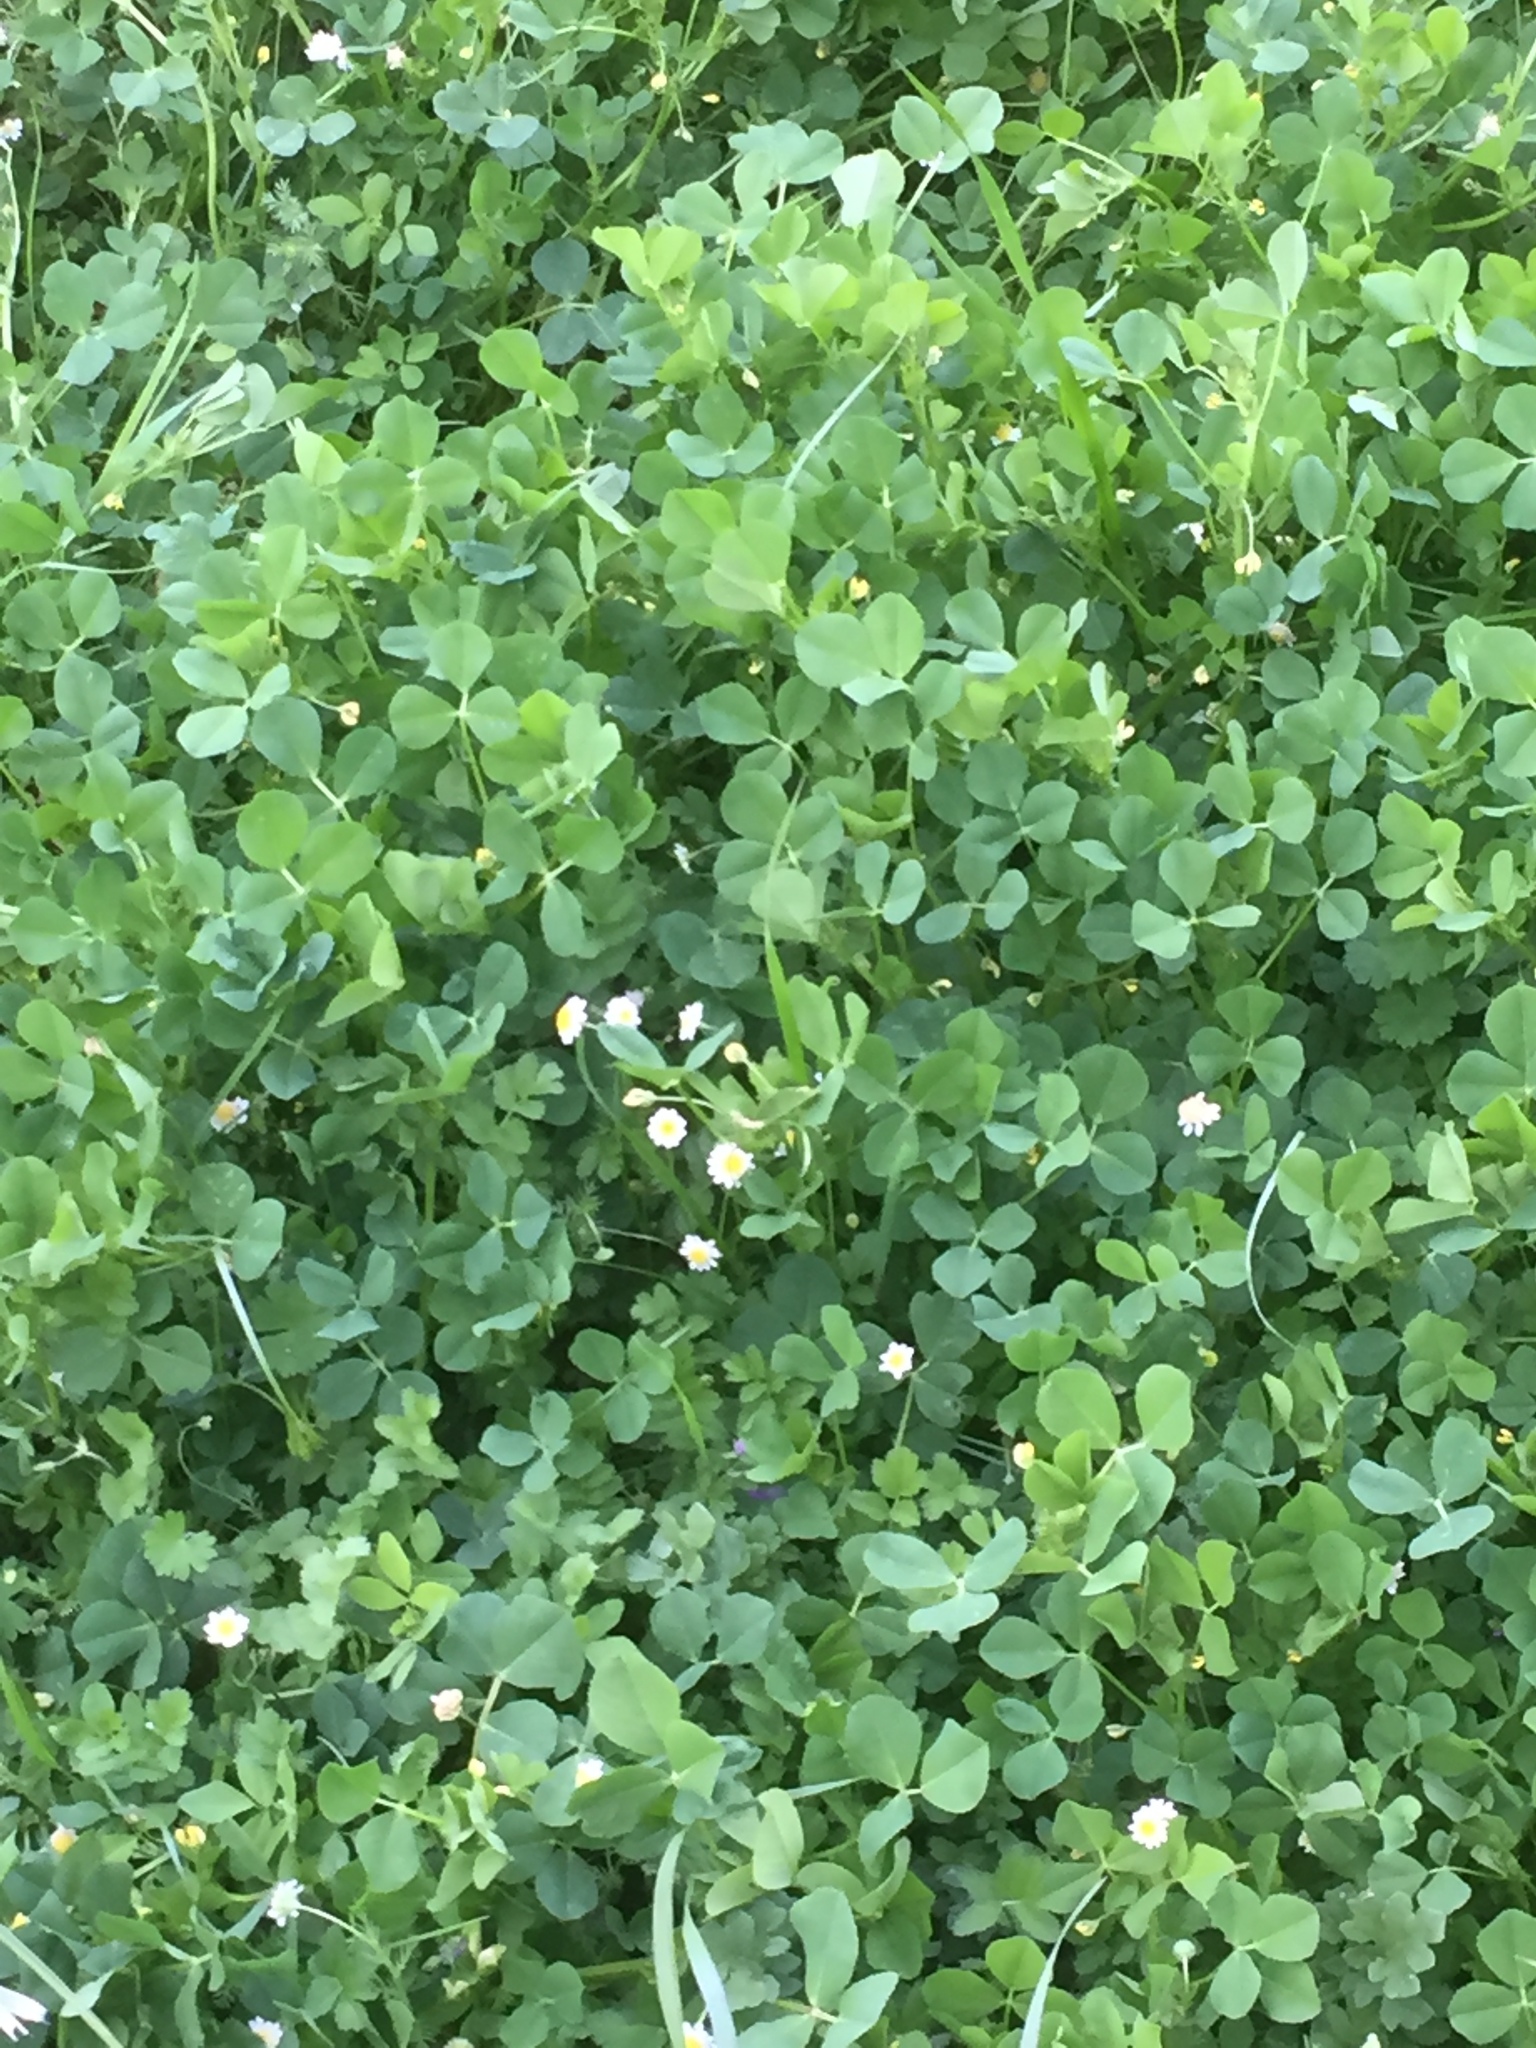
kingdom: Plantae
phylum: Tracheophyta
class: Magnoliopsida
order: Fabales
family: Fabaceae
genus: Medicago
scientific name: Medicago polymorpha
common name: Burclover
